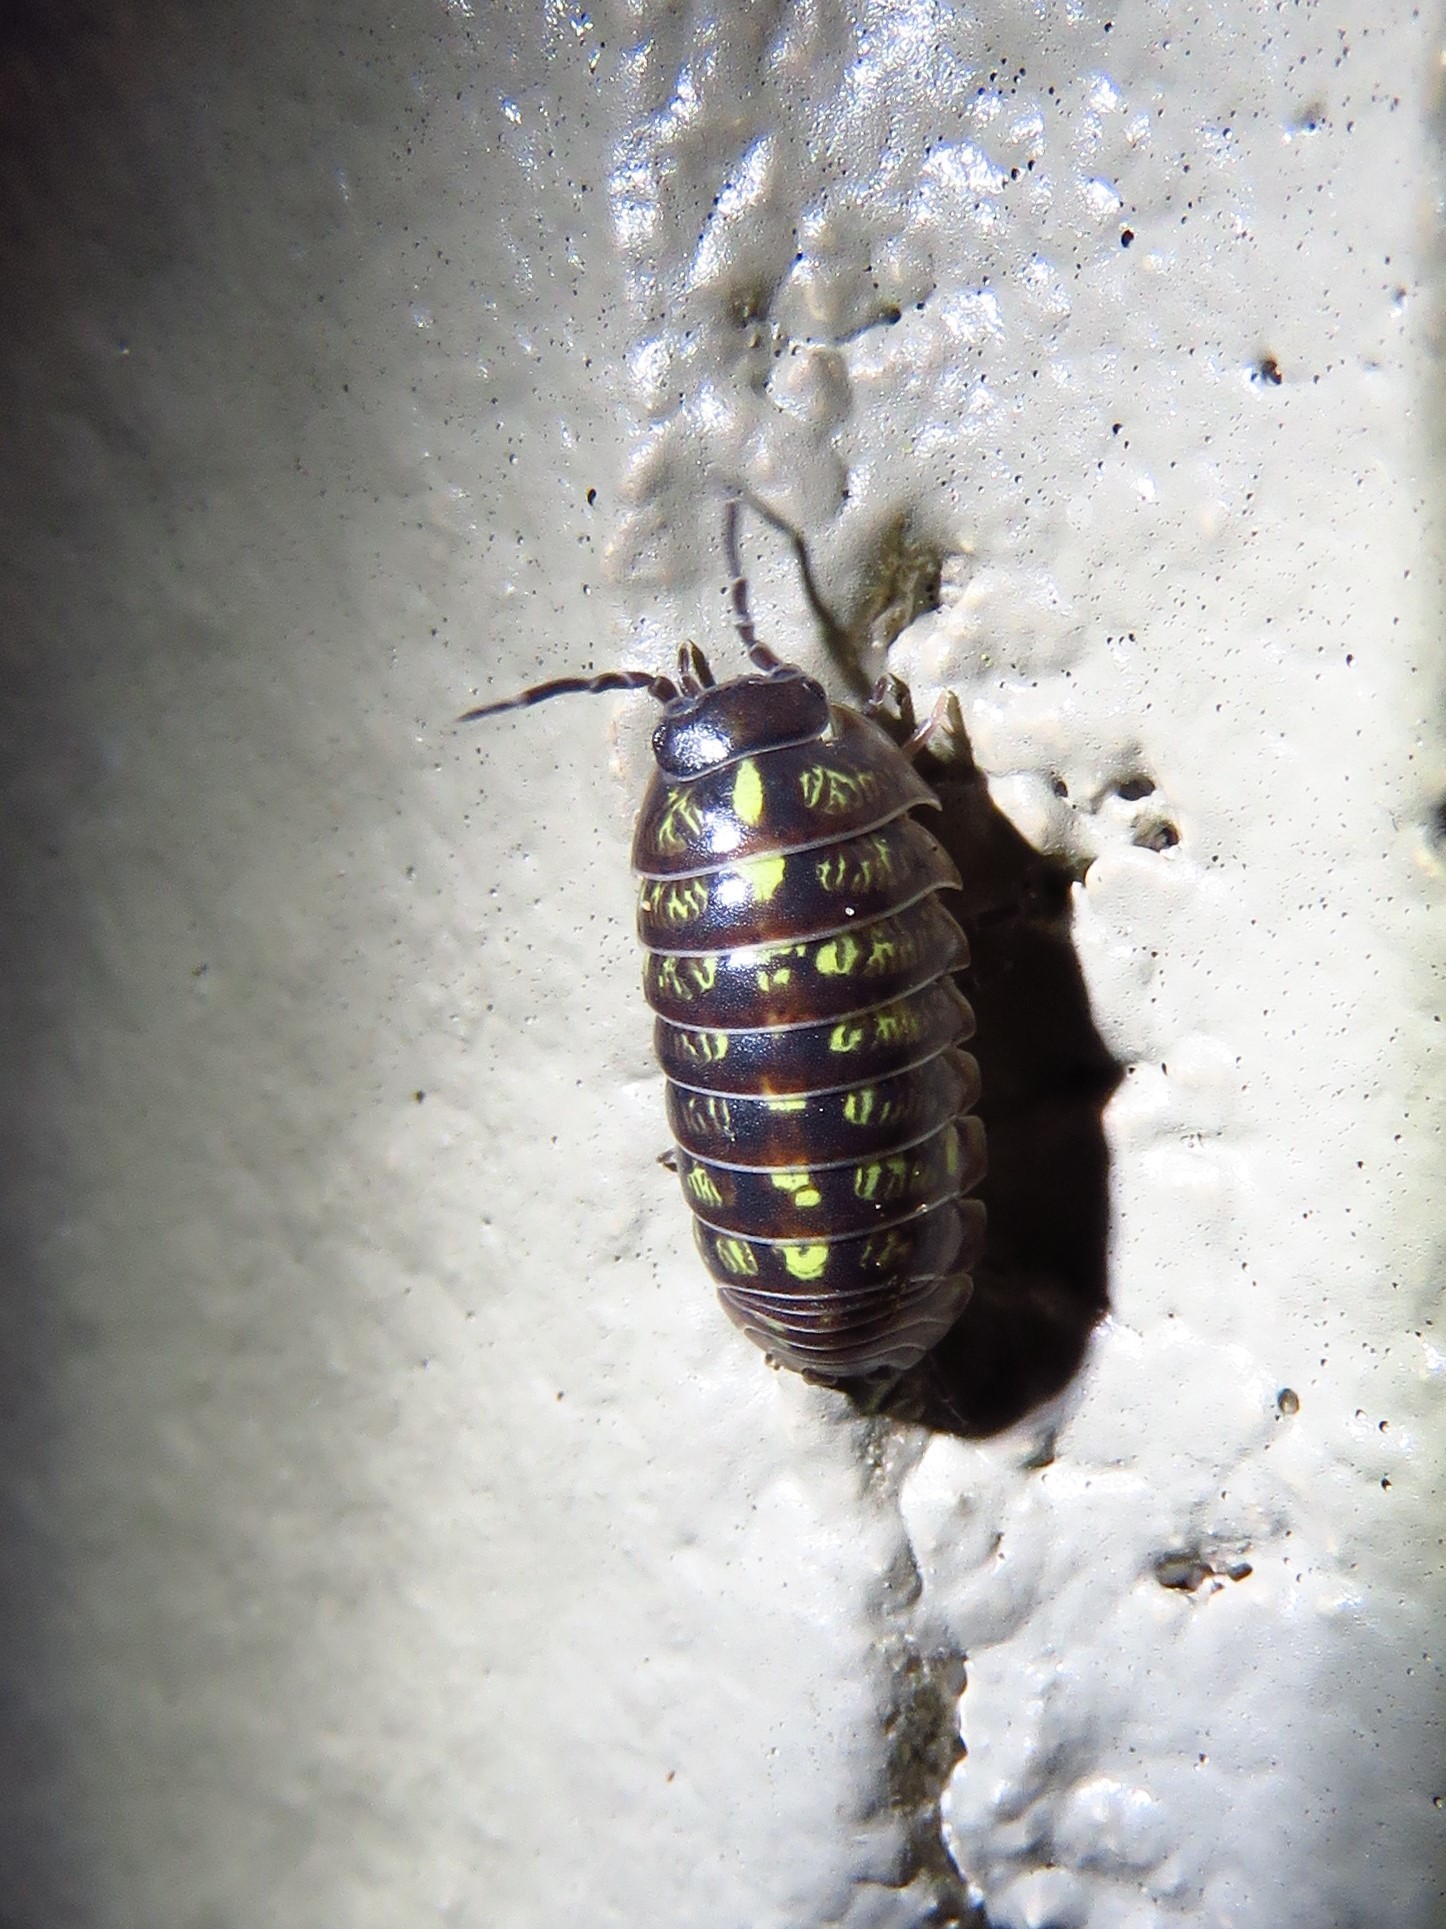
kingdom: Animalia
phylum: Arthropoda
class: Malacostraca
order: Isopoda
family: Armadillidiidae
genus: Armadillidium
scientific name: Armadillidium vulgare
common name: Common pill woodlouse
